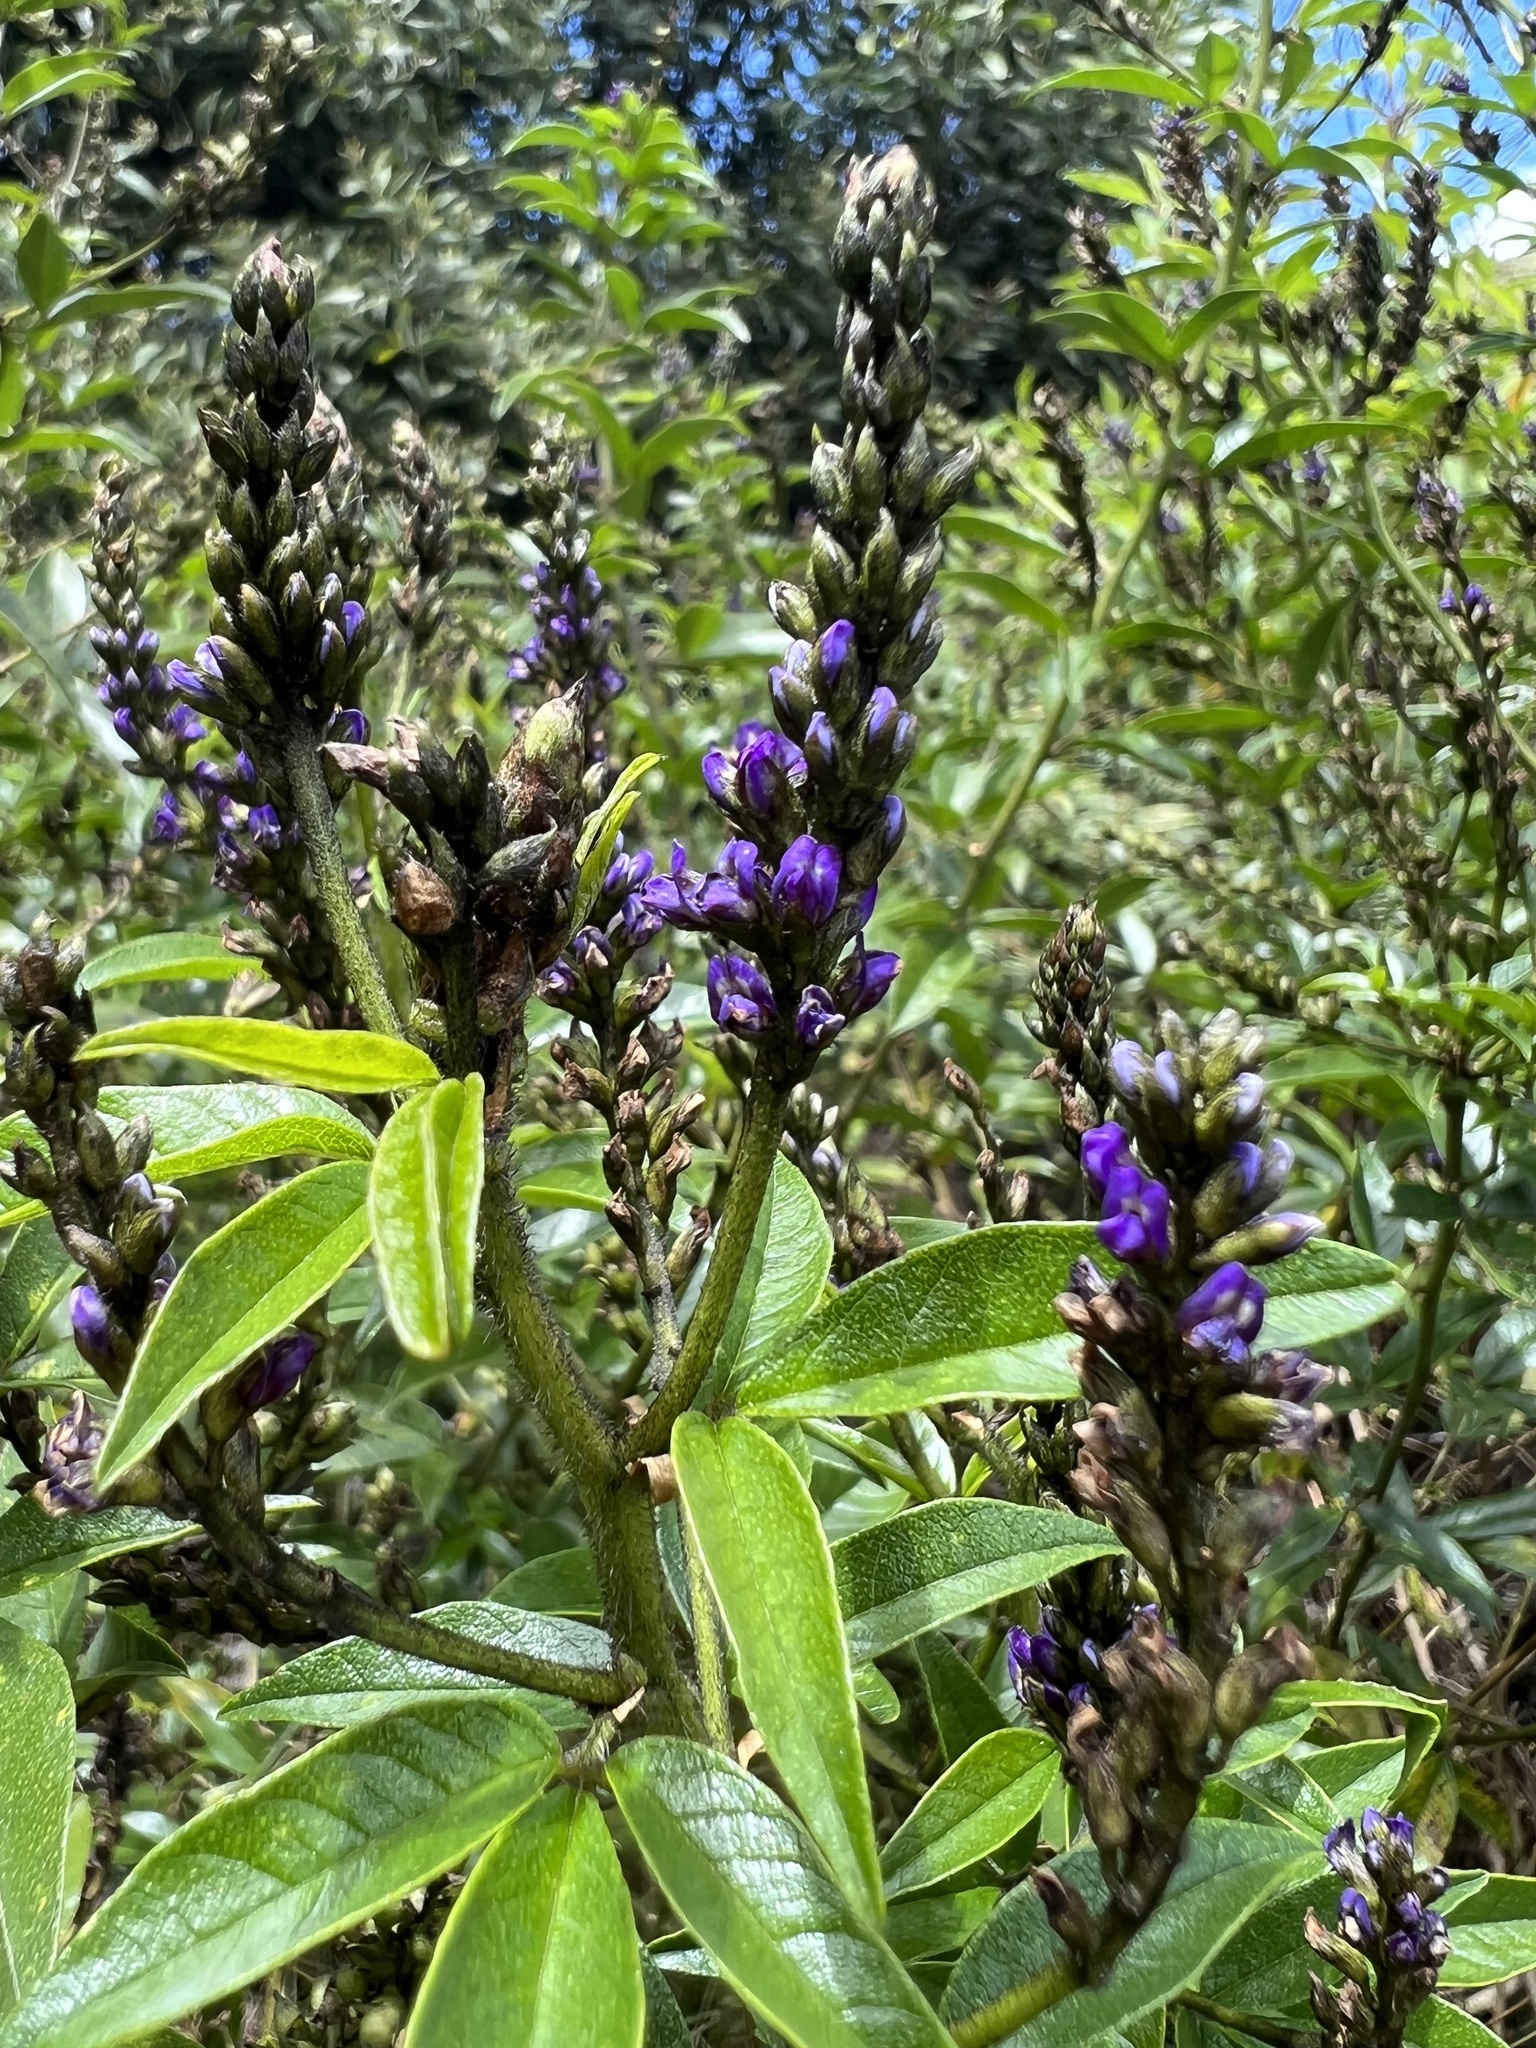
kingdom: Plantae
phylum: Tracheophyta
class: Magnoliopsida
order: Fabales
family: Fabaceae
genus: Psoralea
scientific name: Psoralea Otholobium mexicanum
